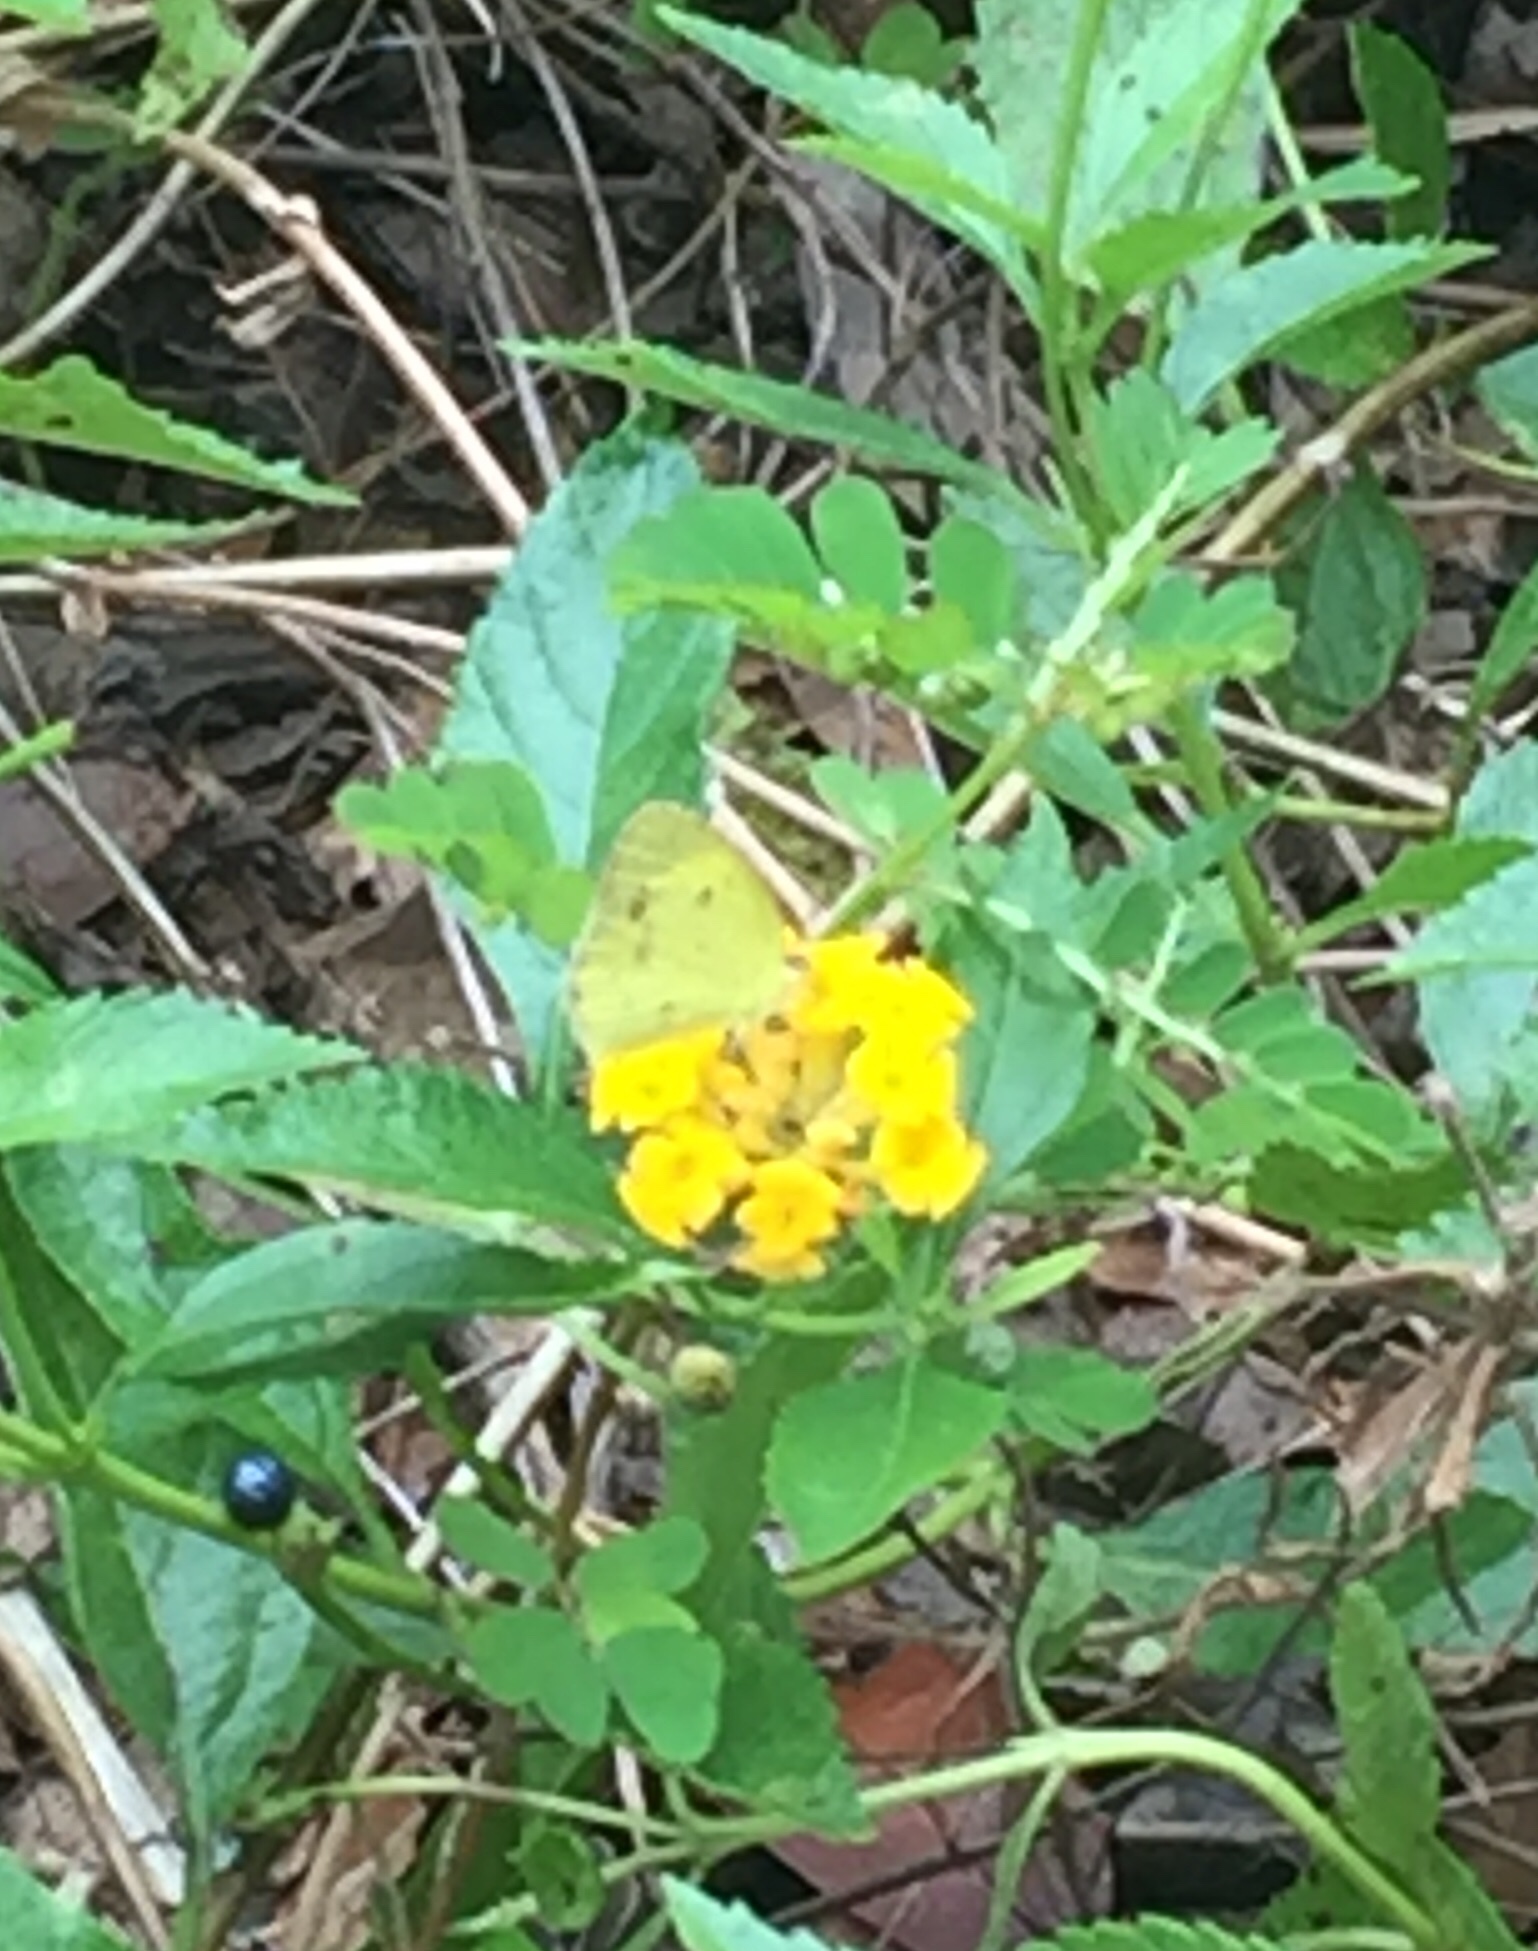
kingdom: Animalia
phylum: Arthropoda
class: Insecta
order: Lepidoptera
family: Pieridae
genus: Pyrisitia
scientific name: Pyrisitia lisa
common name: Little yellow
